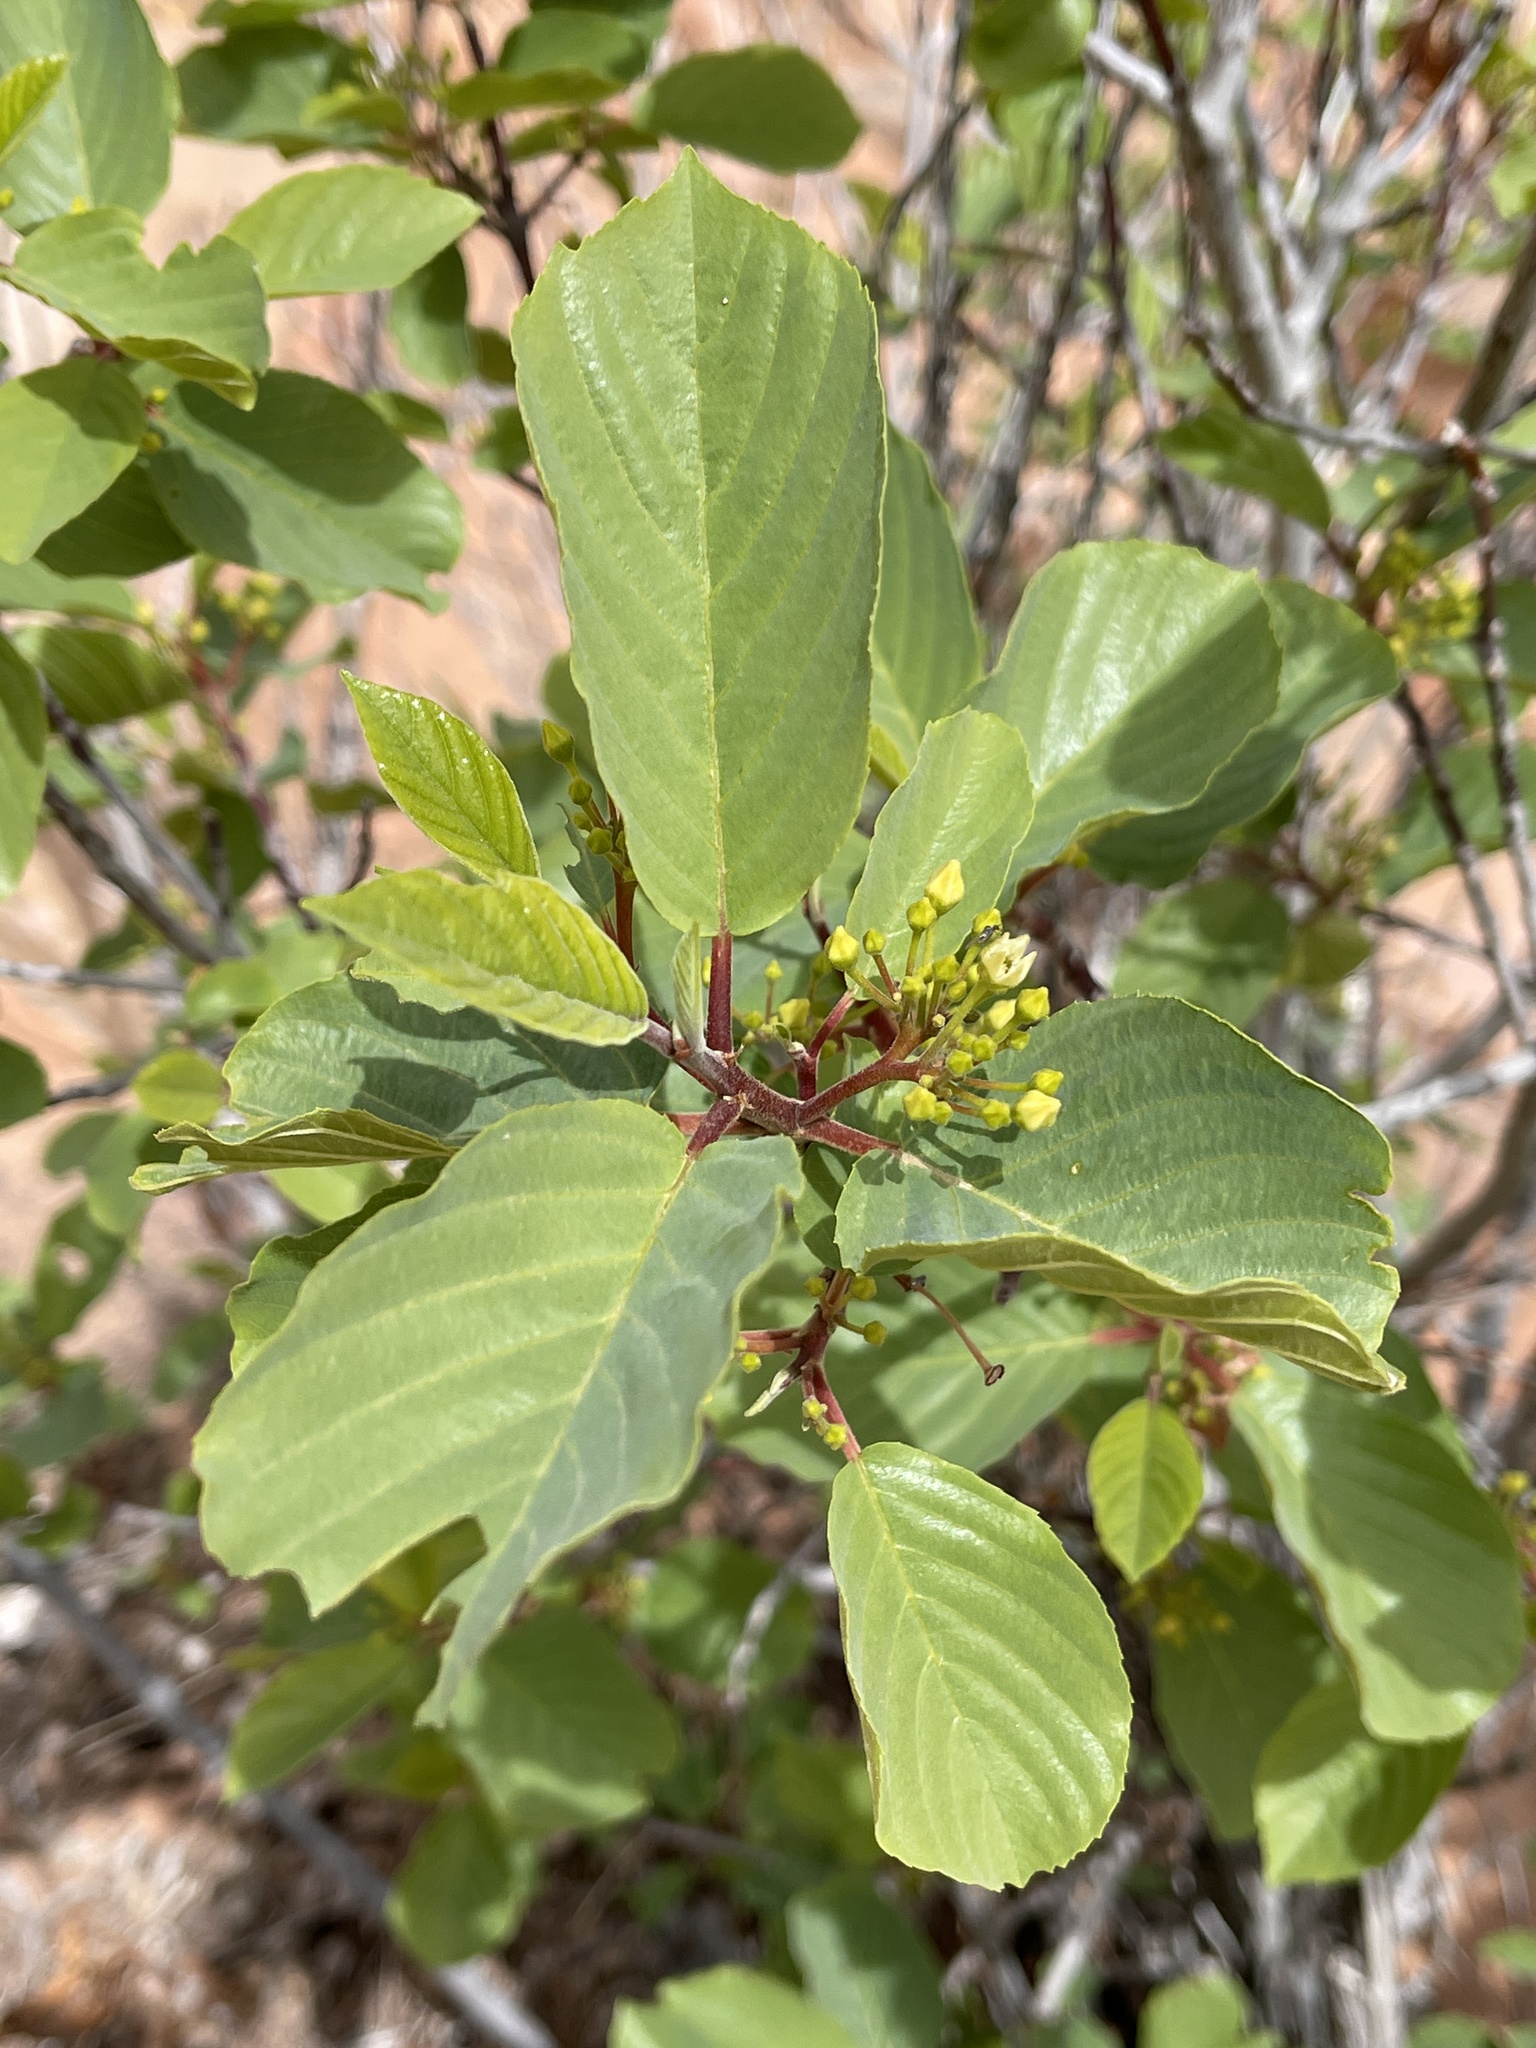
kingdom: Plantae
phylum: Tracheophyta
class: Magnoliopsida
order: Rosales
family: Rhamnaceae
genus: Frangula
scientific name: Frangula betulifolia
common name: Birch-leaf buckthorn
